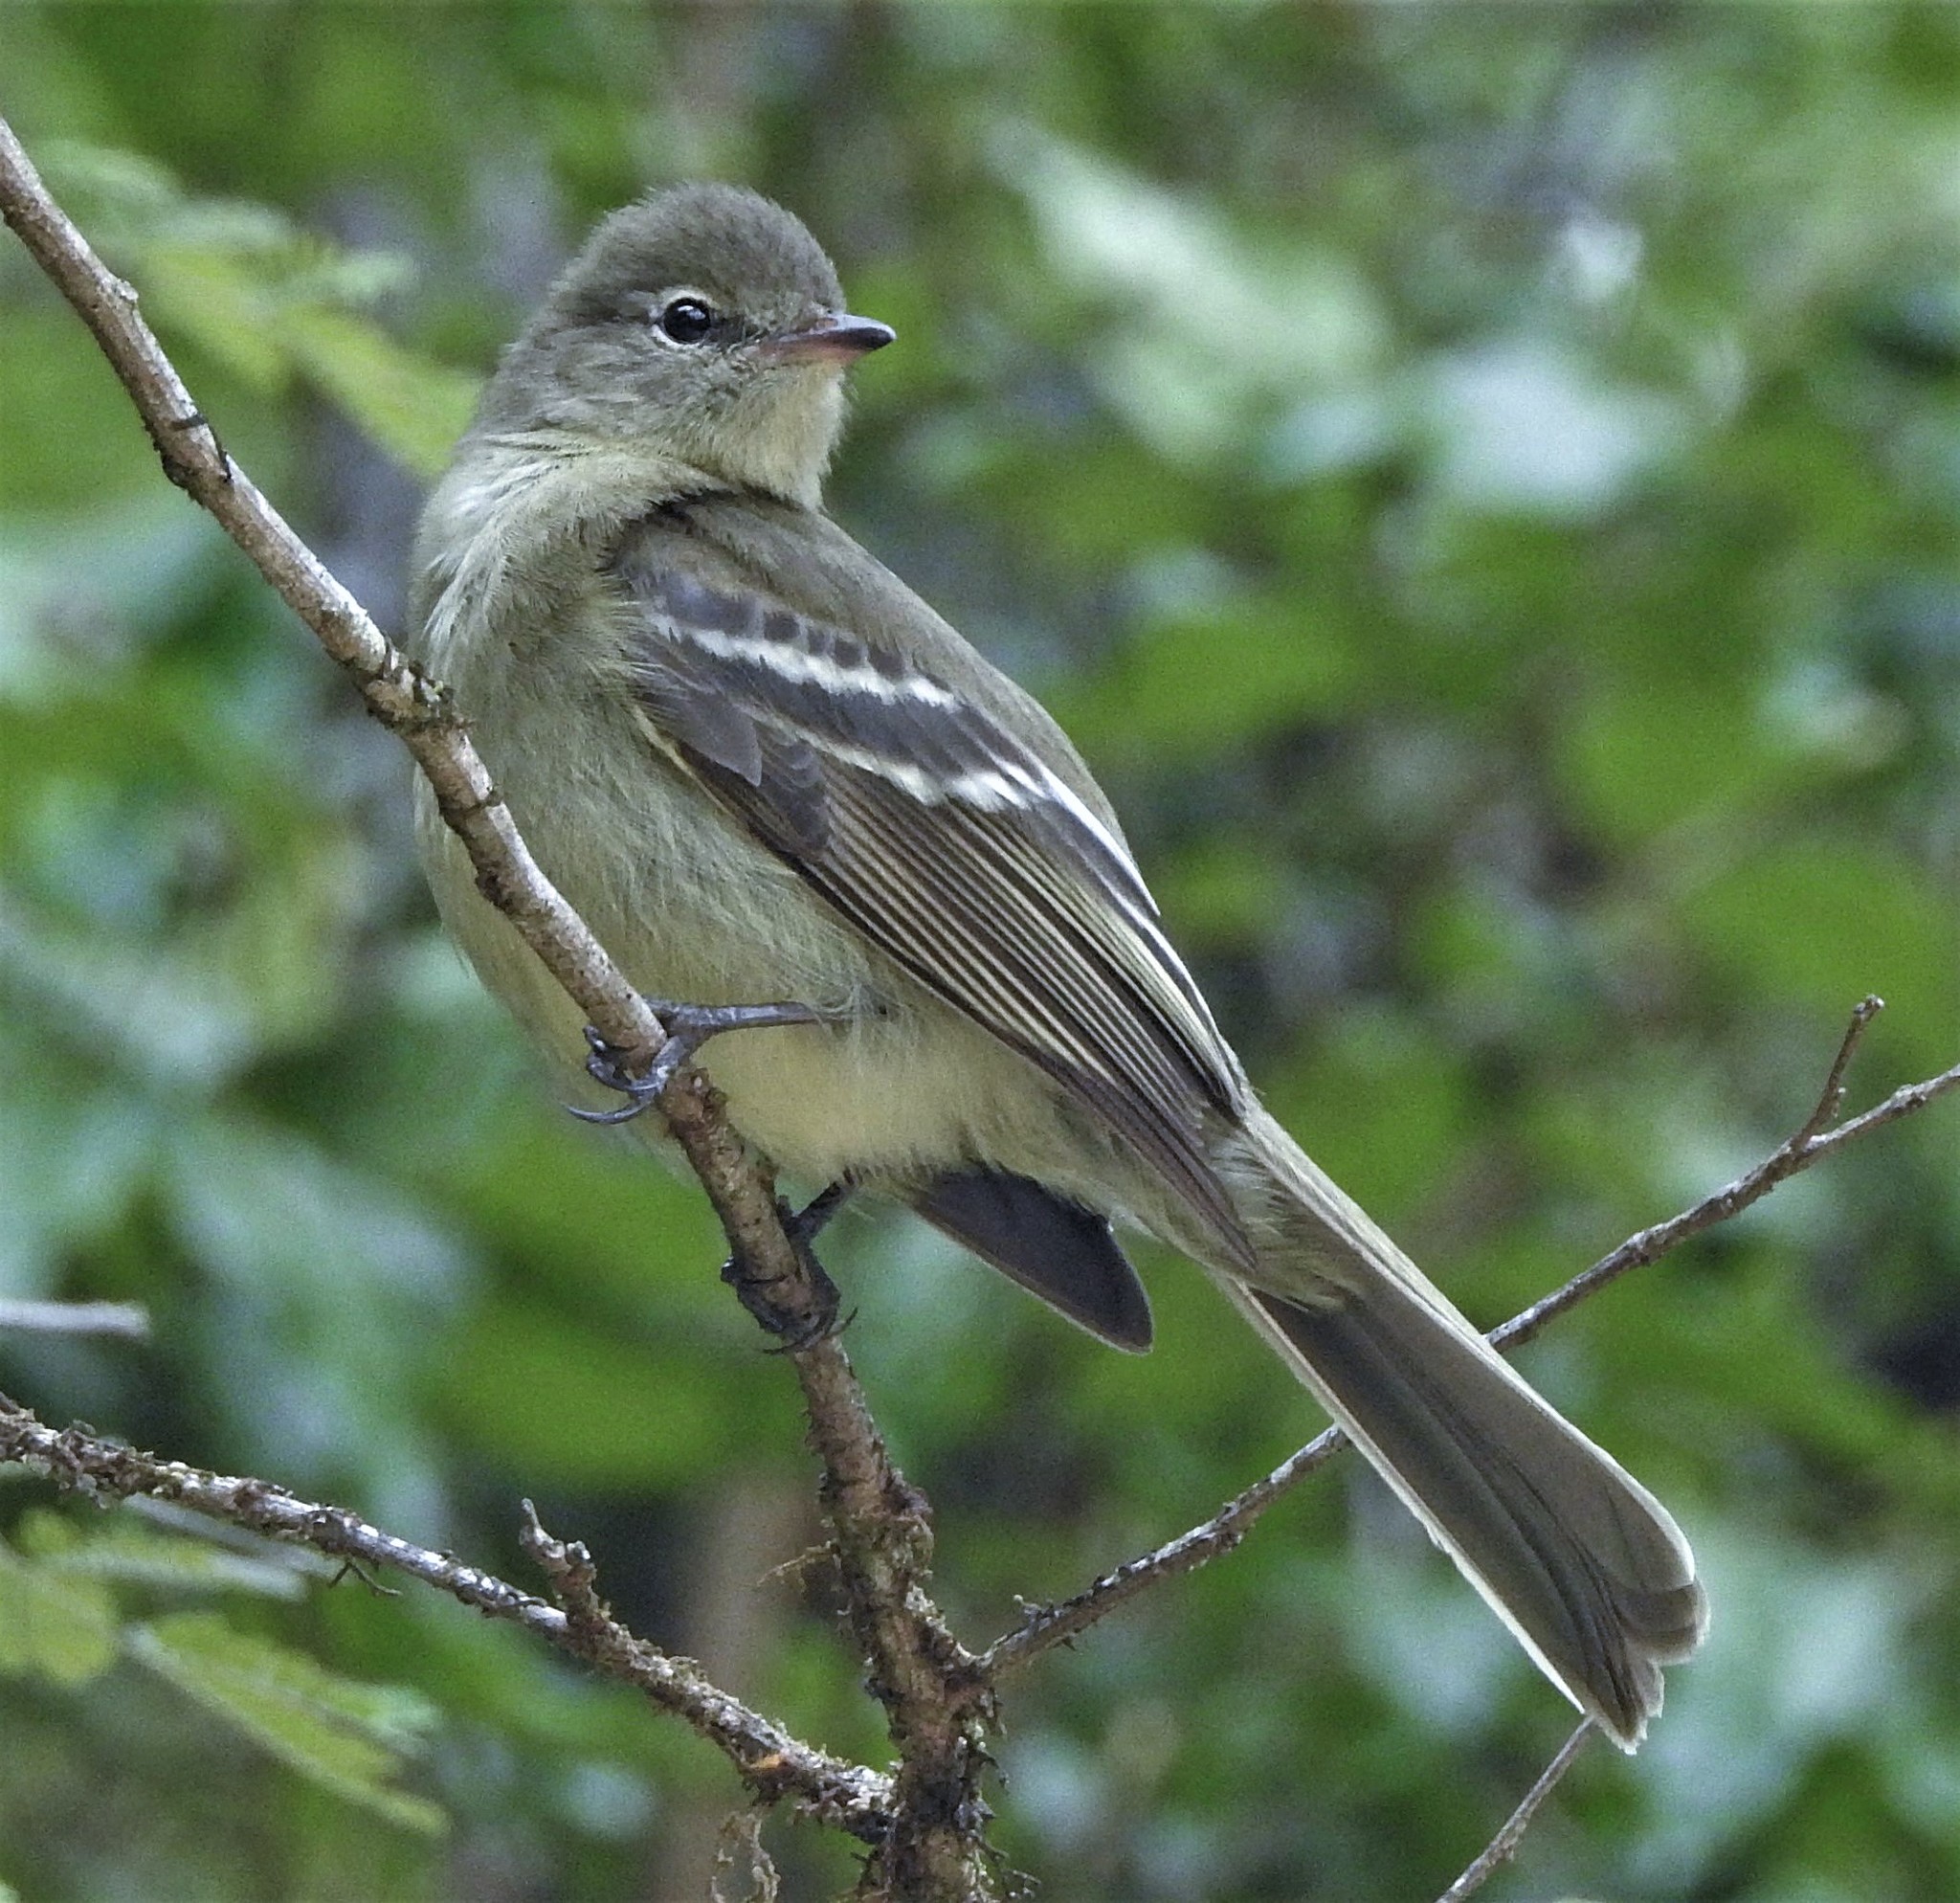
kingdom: Animalia
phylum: Chordata
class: Aves
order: Passeriformes
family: Tyrannidae
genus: Elaenia
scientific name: Elaenia obscura
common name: Highland elaenia
